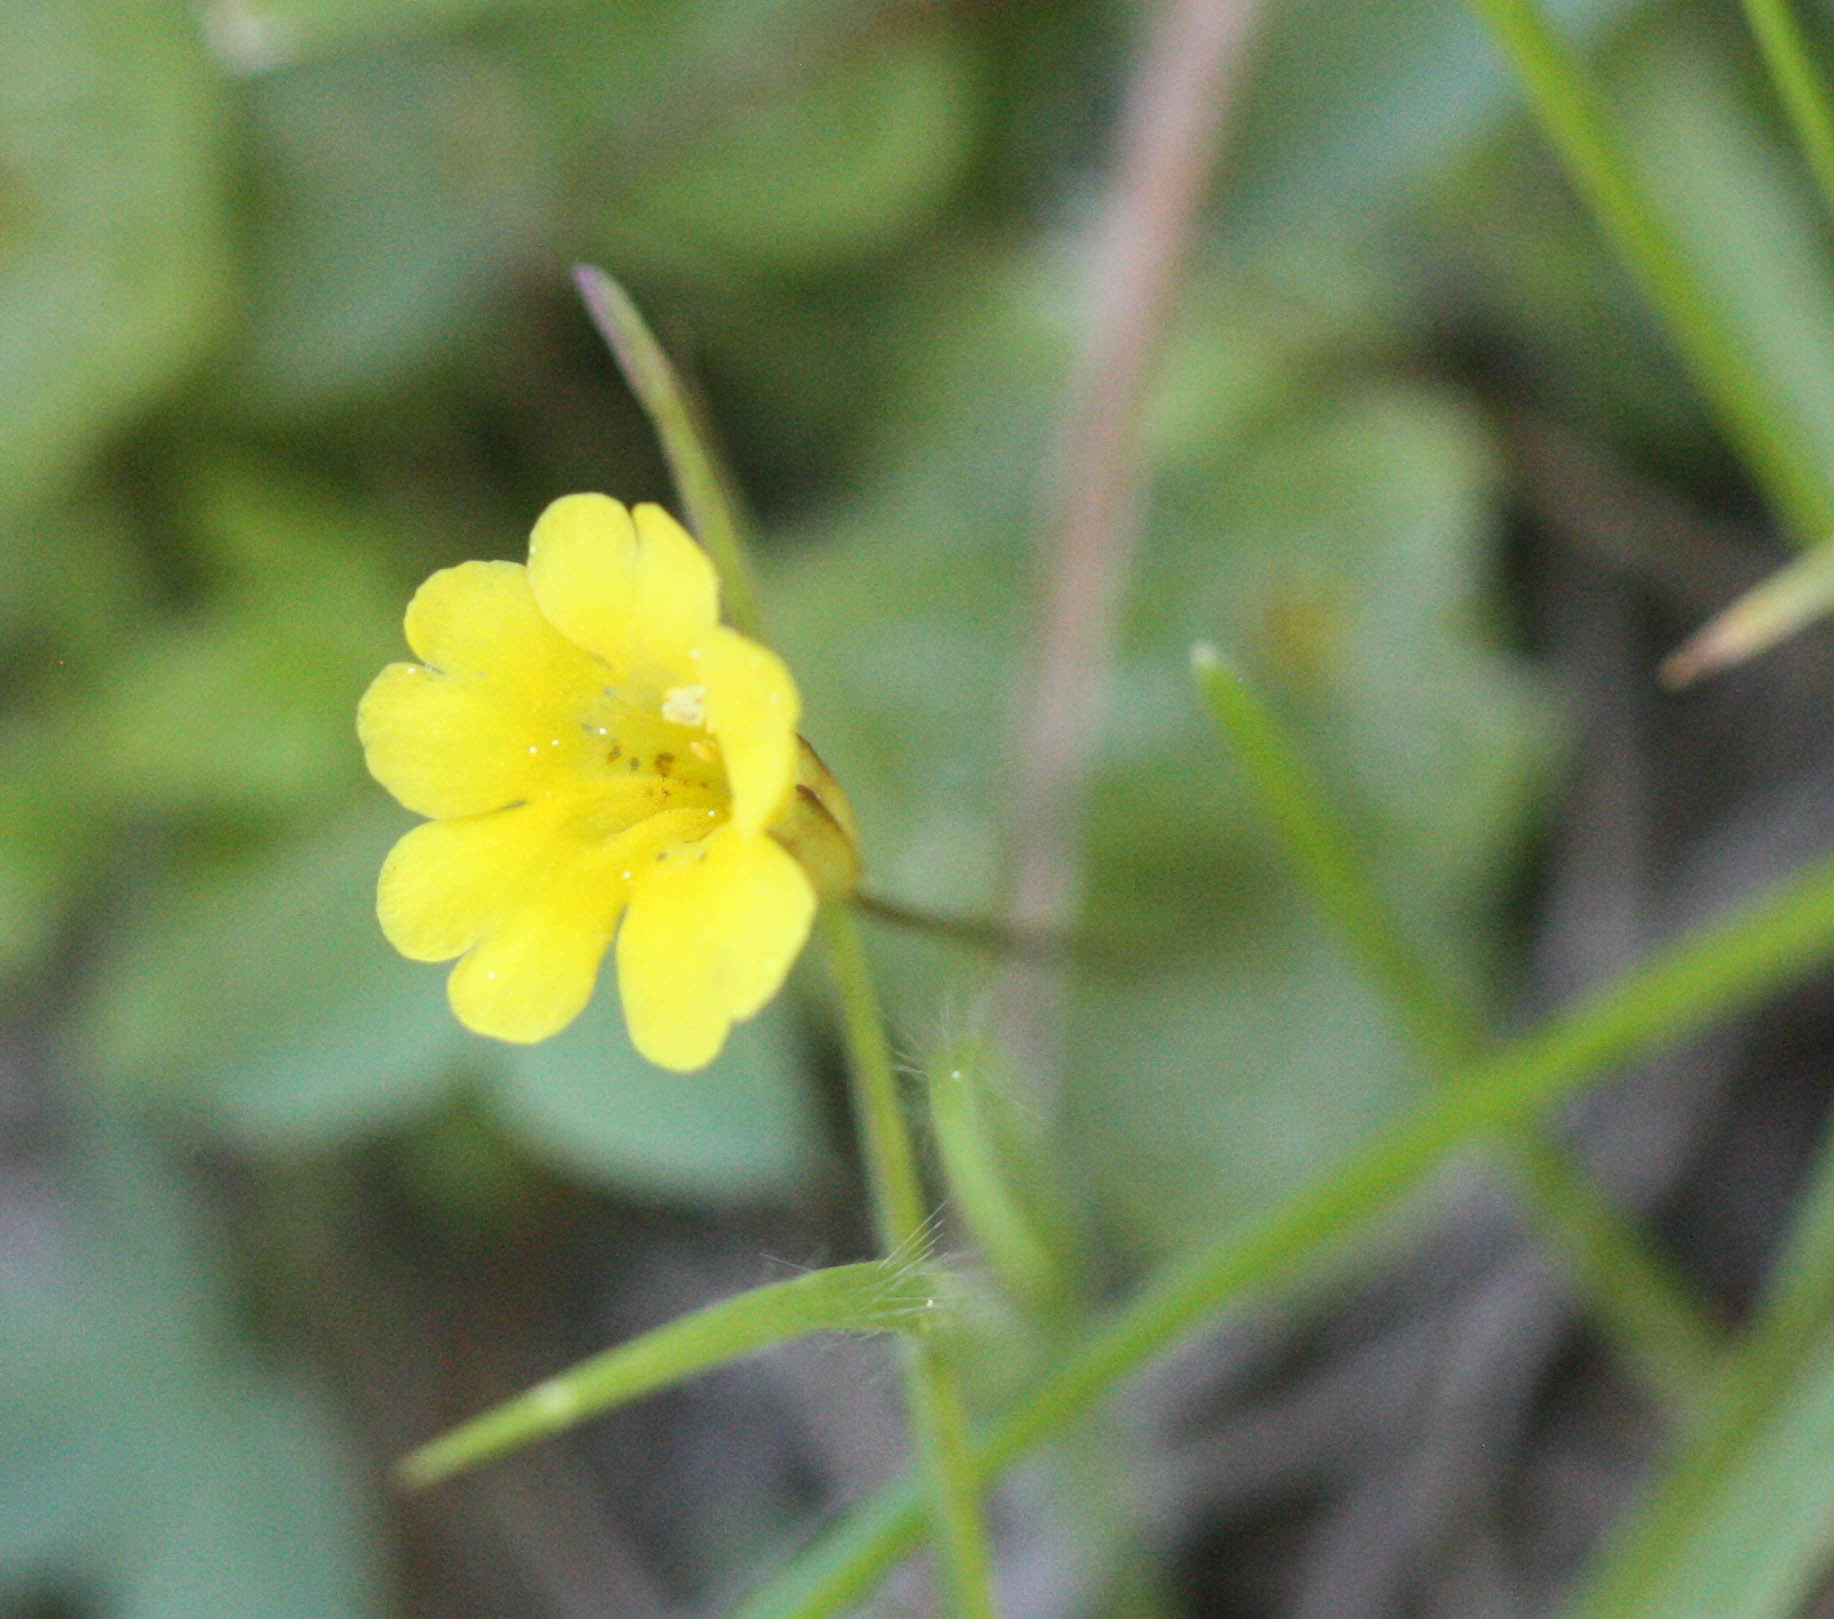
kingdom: Plantae
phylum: Tracheophyta
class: Magnoliopsida
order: Lamiales
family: Phrymaceae
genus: Erythranthe
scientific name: Erythranthe primuloides
